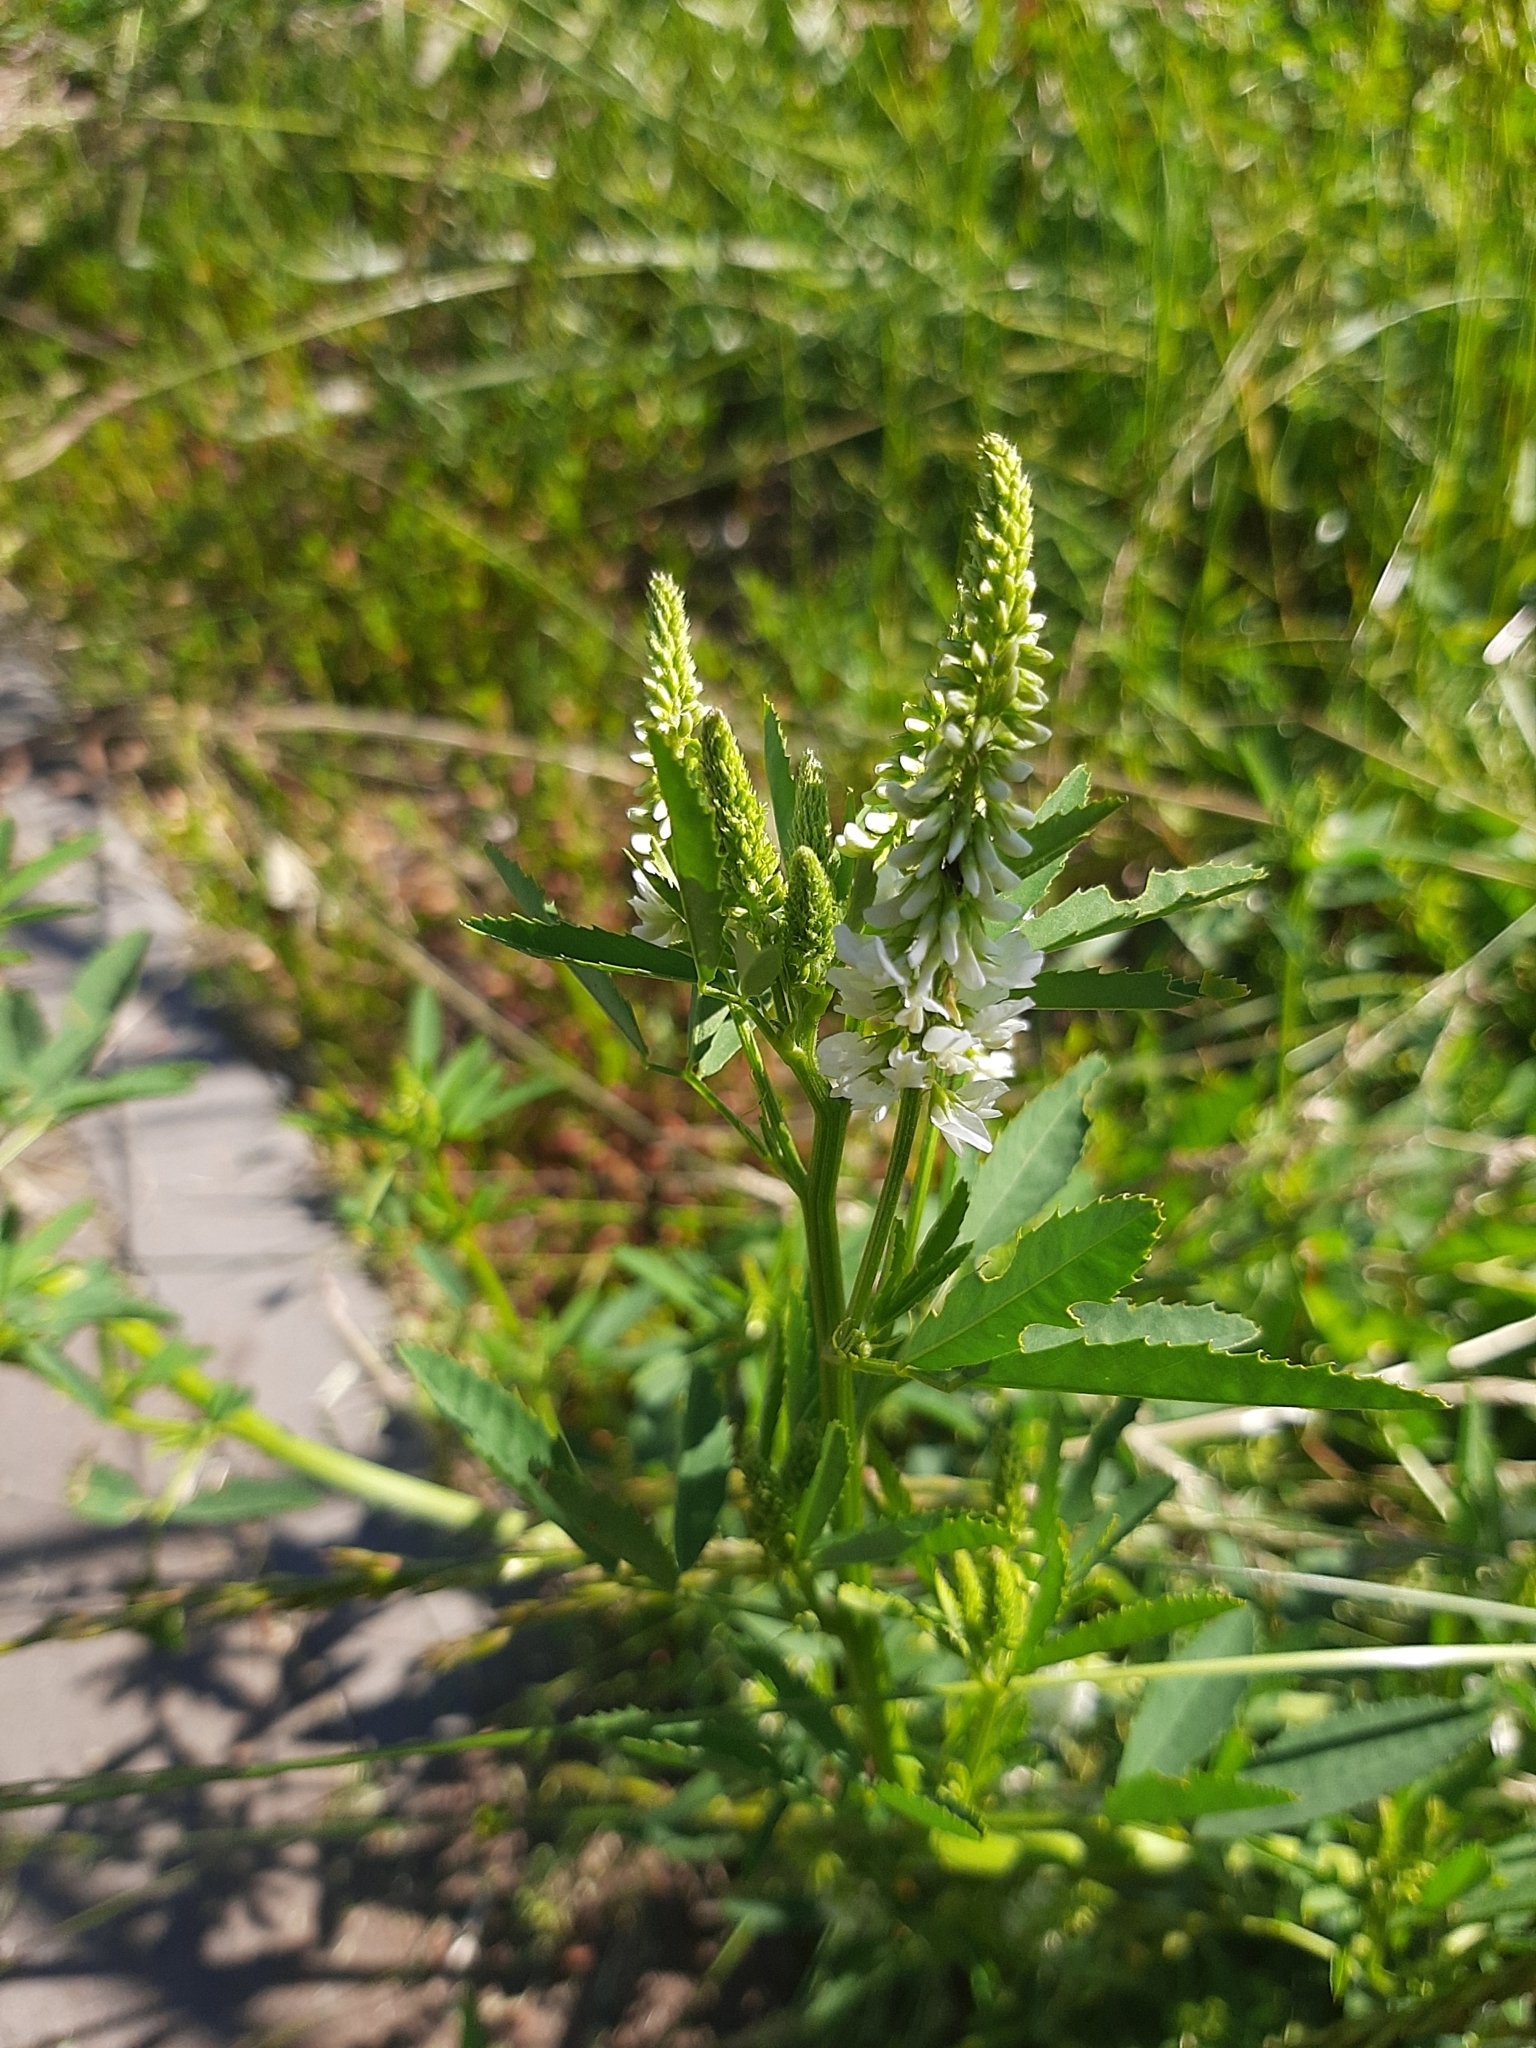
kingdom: Plantae
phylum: Tracheophyta
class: Magnoliopsida
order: Fabales
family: Fabaceae
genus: Melilotus
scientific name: Melilotus albus
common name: White melilot
